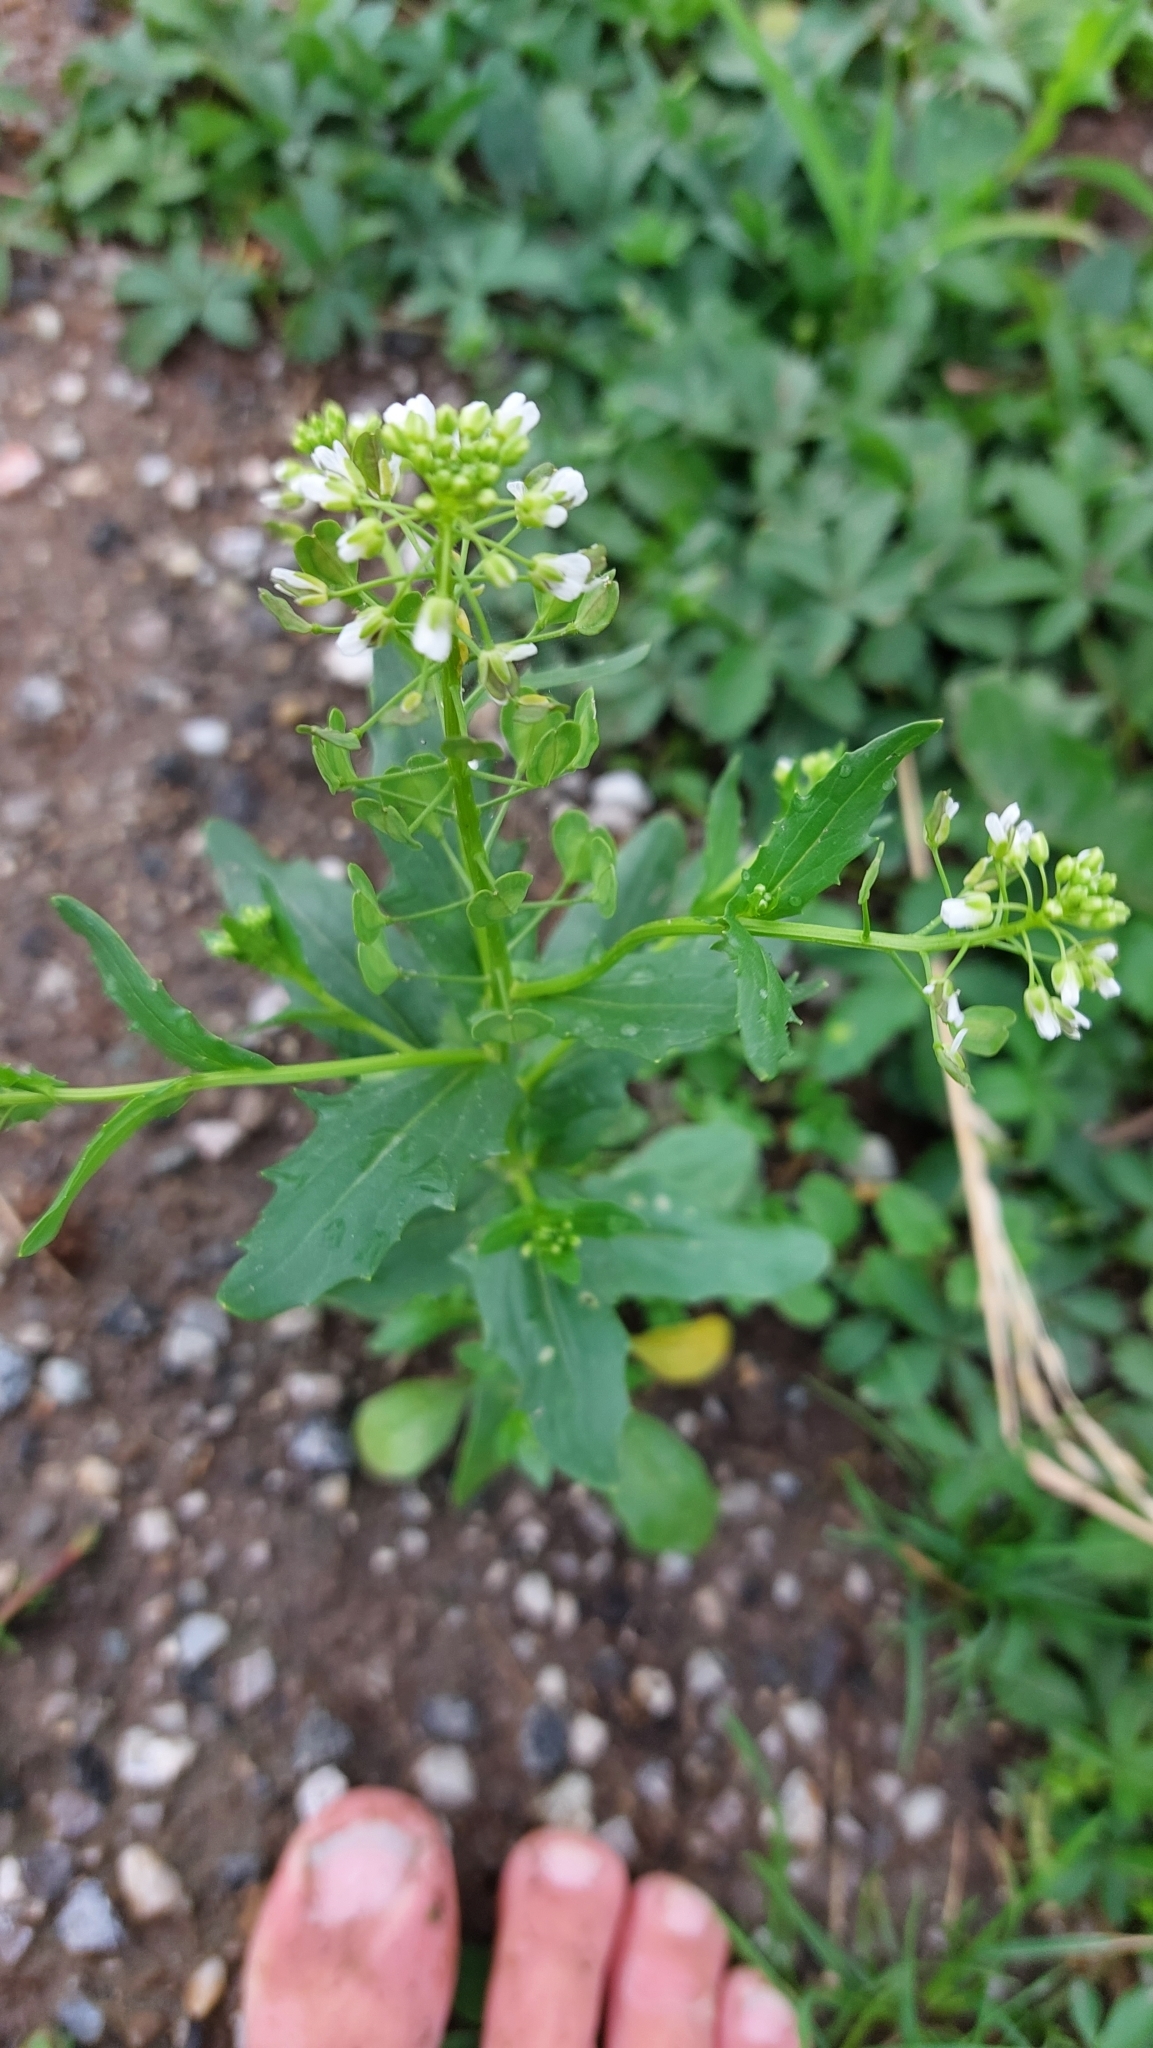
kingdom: Plantae
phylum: Tracheophyta
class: Magnoliopsida
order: Brassicales
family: Brassicaceae
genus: Thlaspi
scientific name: Thlaspi arvense
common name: Field pennycress
